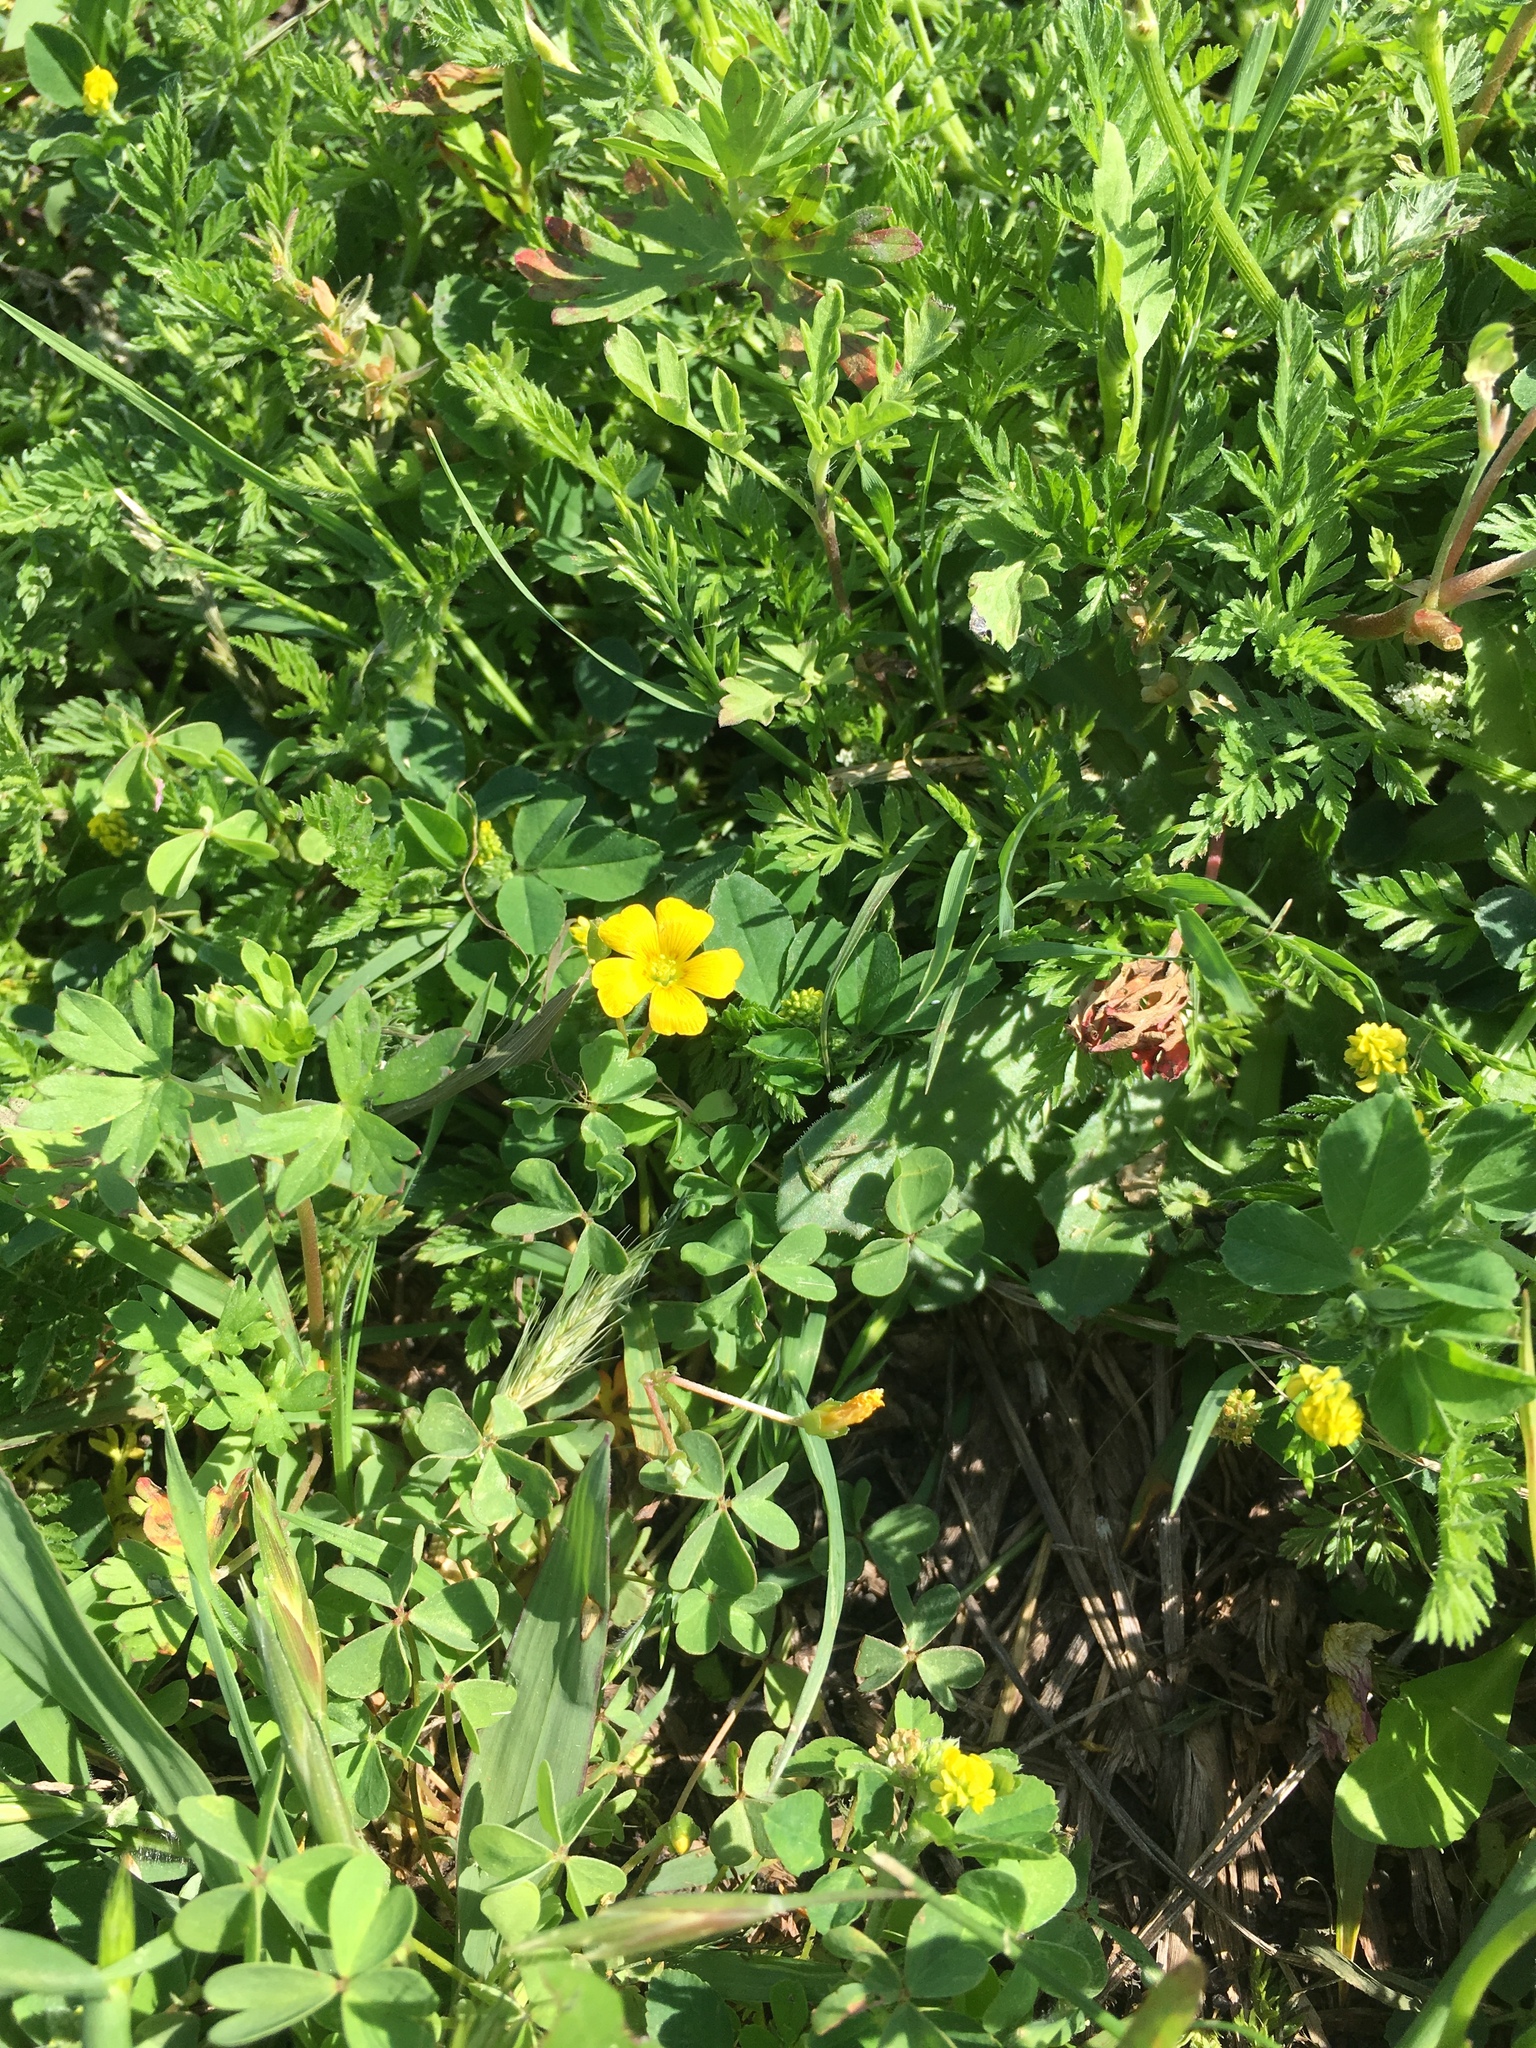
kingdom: Plantae
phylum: Tracheophyta
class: Magnoliopsida
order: Oxalidales
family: Oxalidaceae
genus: Oxalis
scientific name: Oxalis corniculata
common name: Procumbent yellow-sorrel
